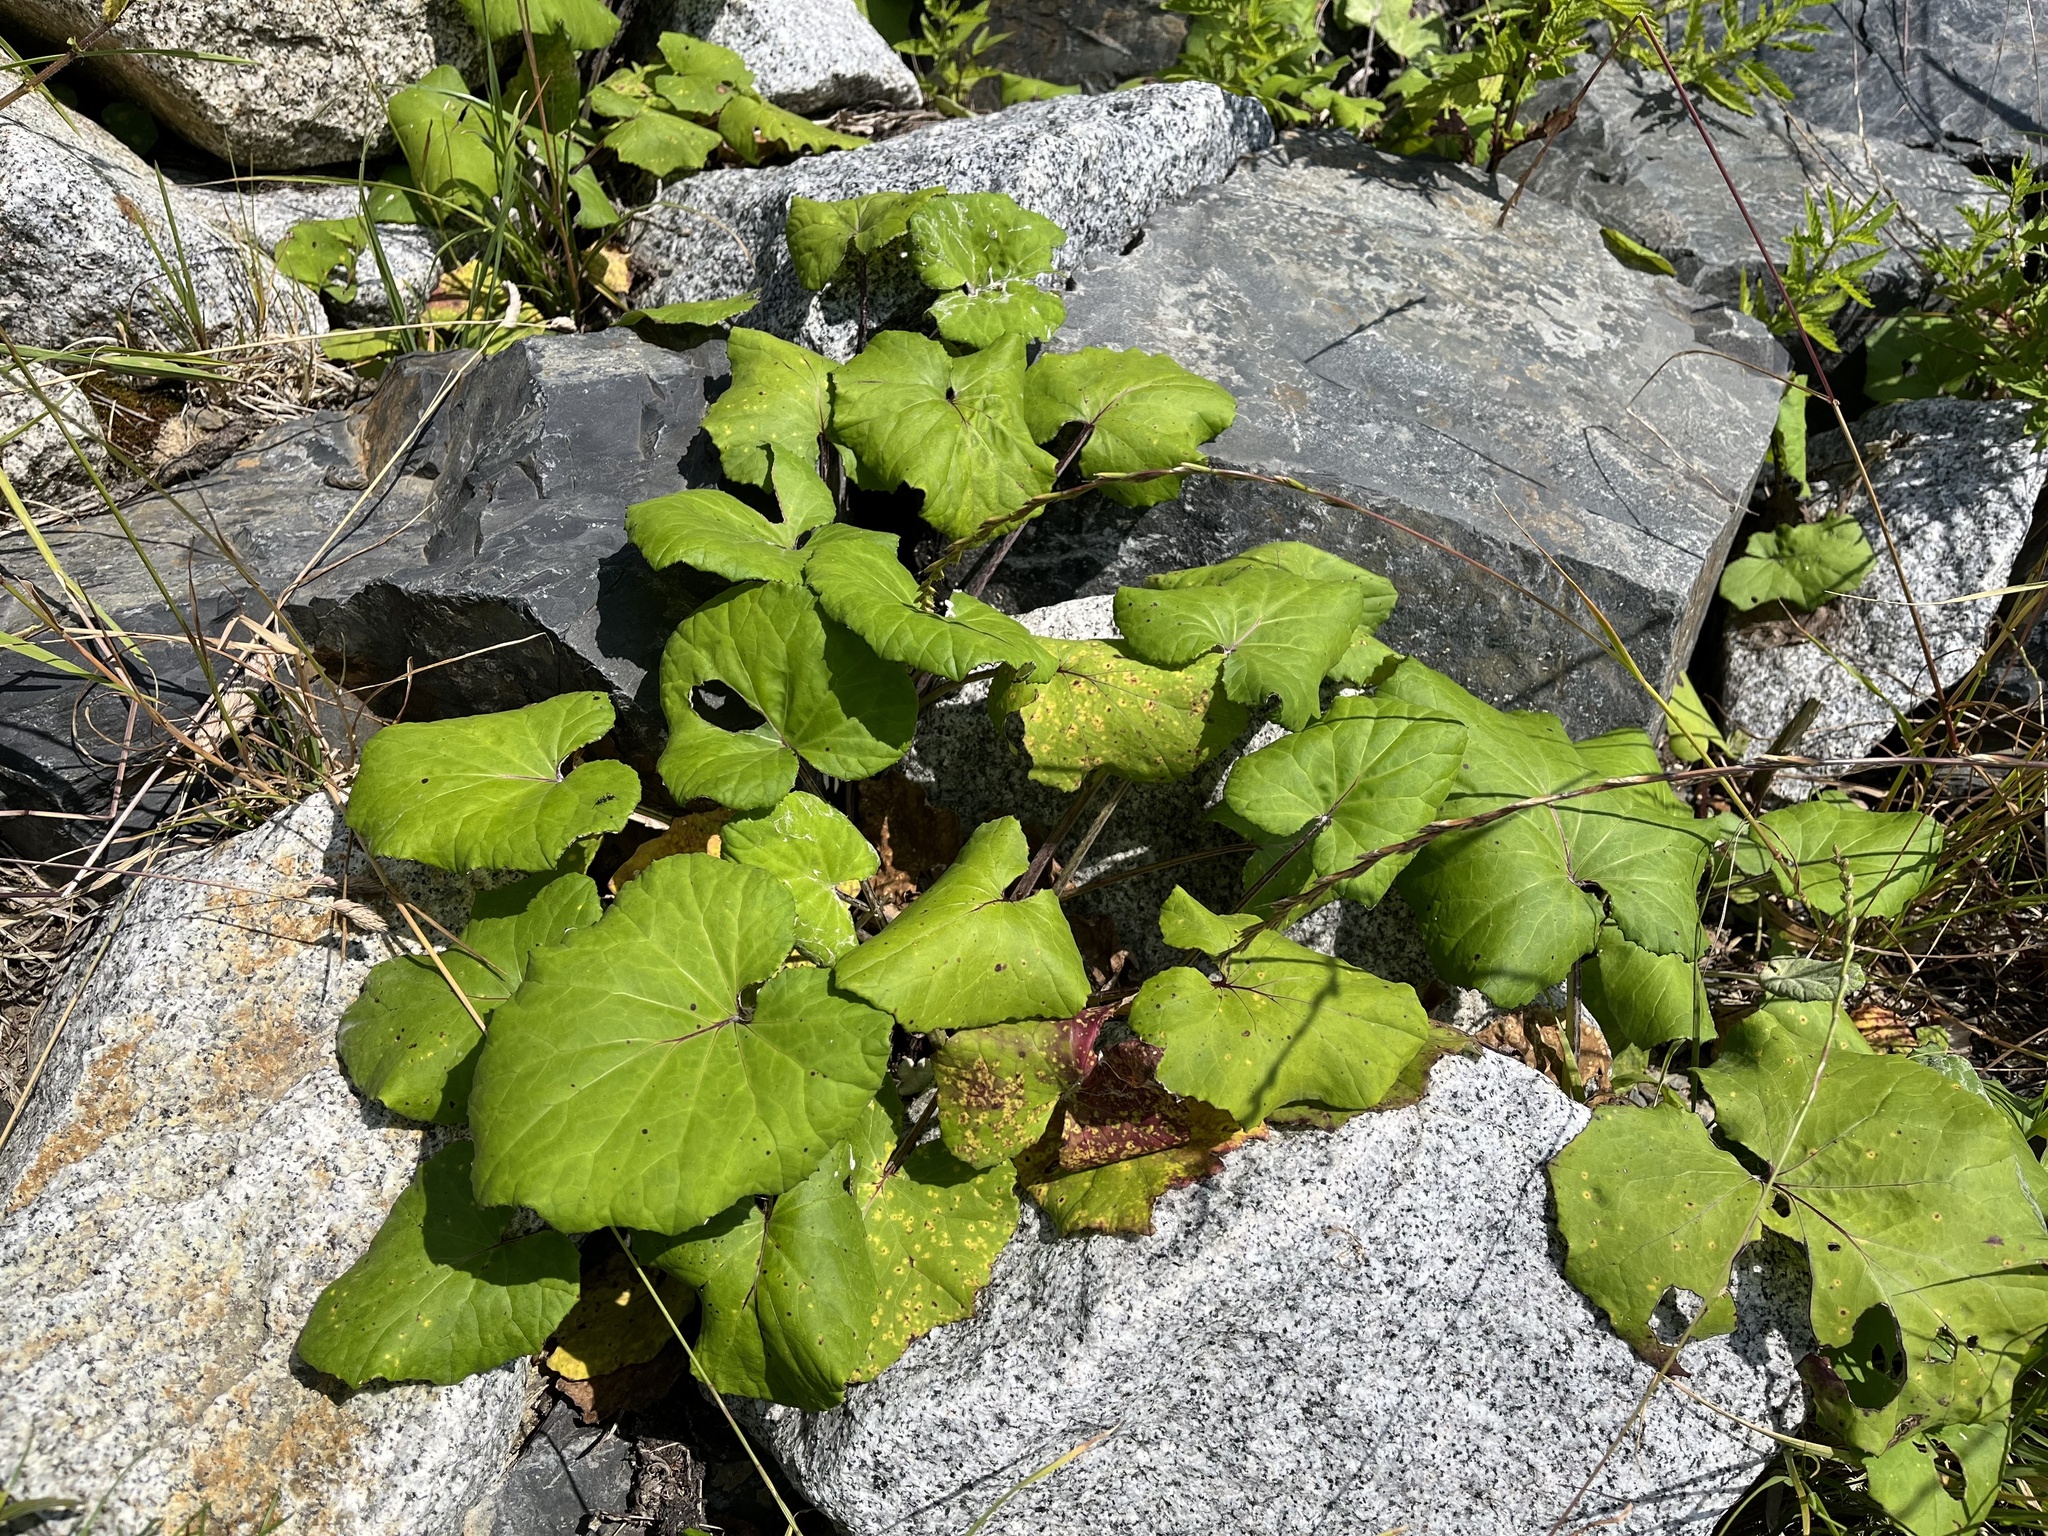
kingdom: Plantae
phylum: Tracheophyta
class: Magnoliopsida
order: Asterales
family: Asteraceae
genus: Tussilago
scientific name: Tussilago farfara
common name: Coltsfoot
